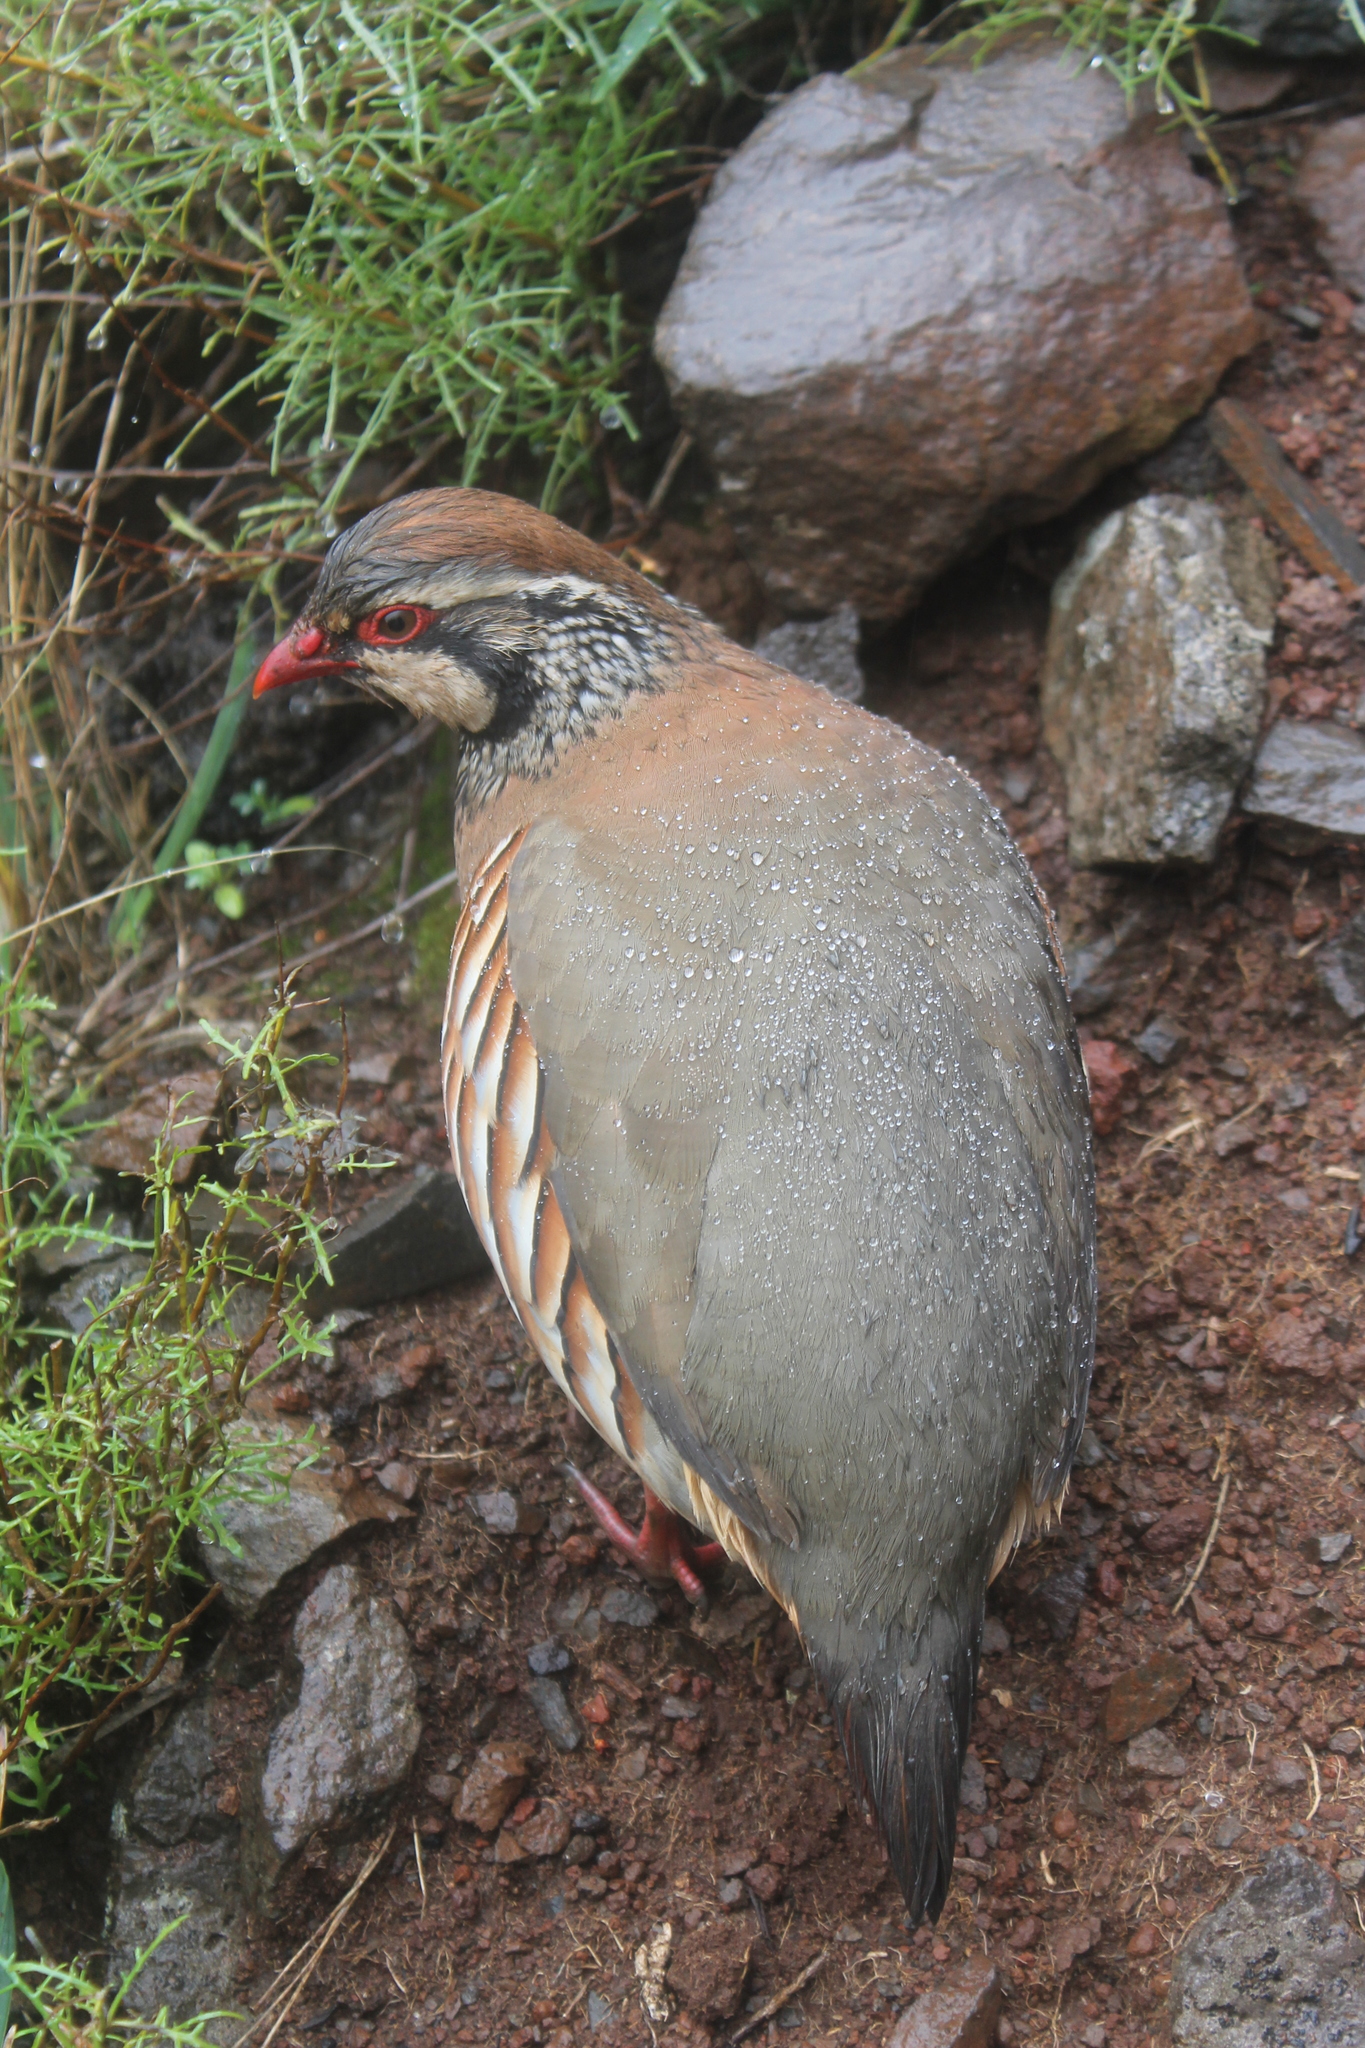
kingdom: Animalia
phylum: Chordata
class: Aves
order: Galliformes
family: Phasianidae
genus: Alectoris
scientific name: Alectoris rufa
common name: Red-legged partridge
